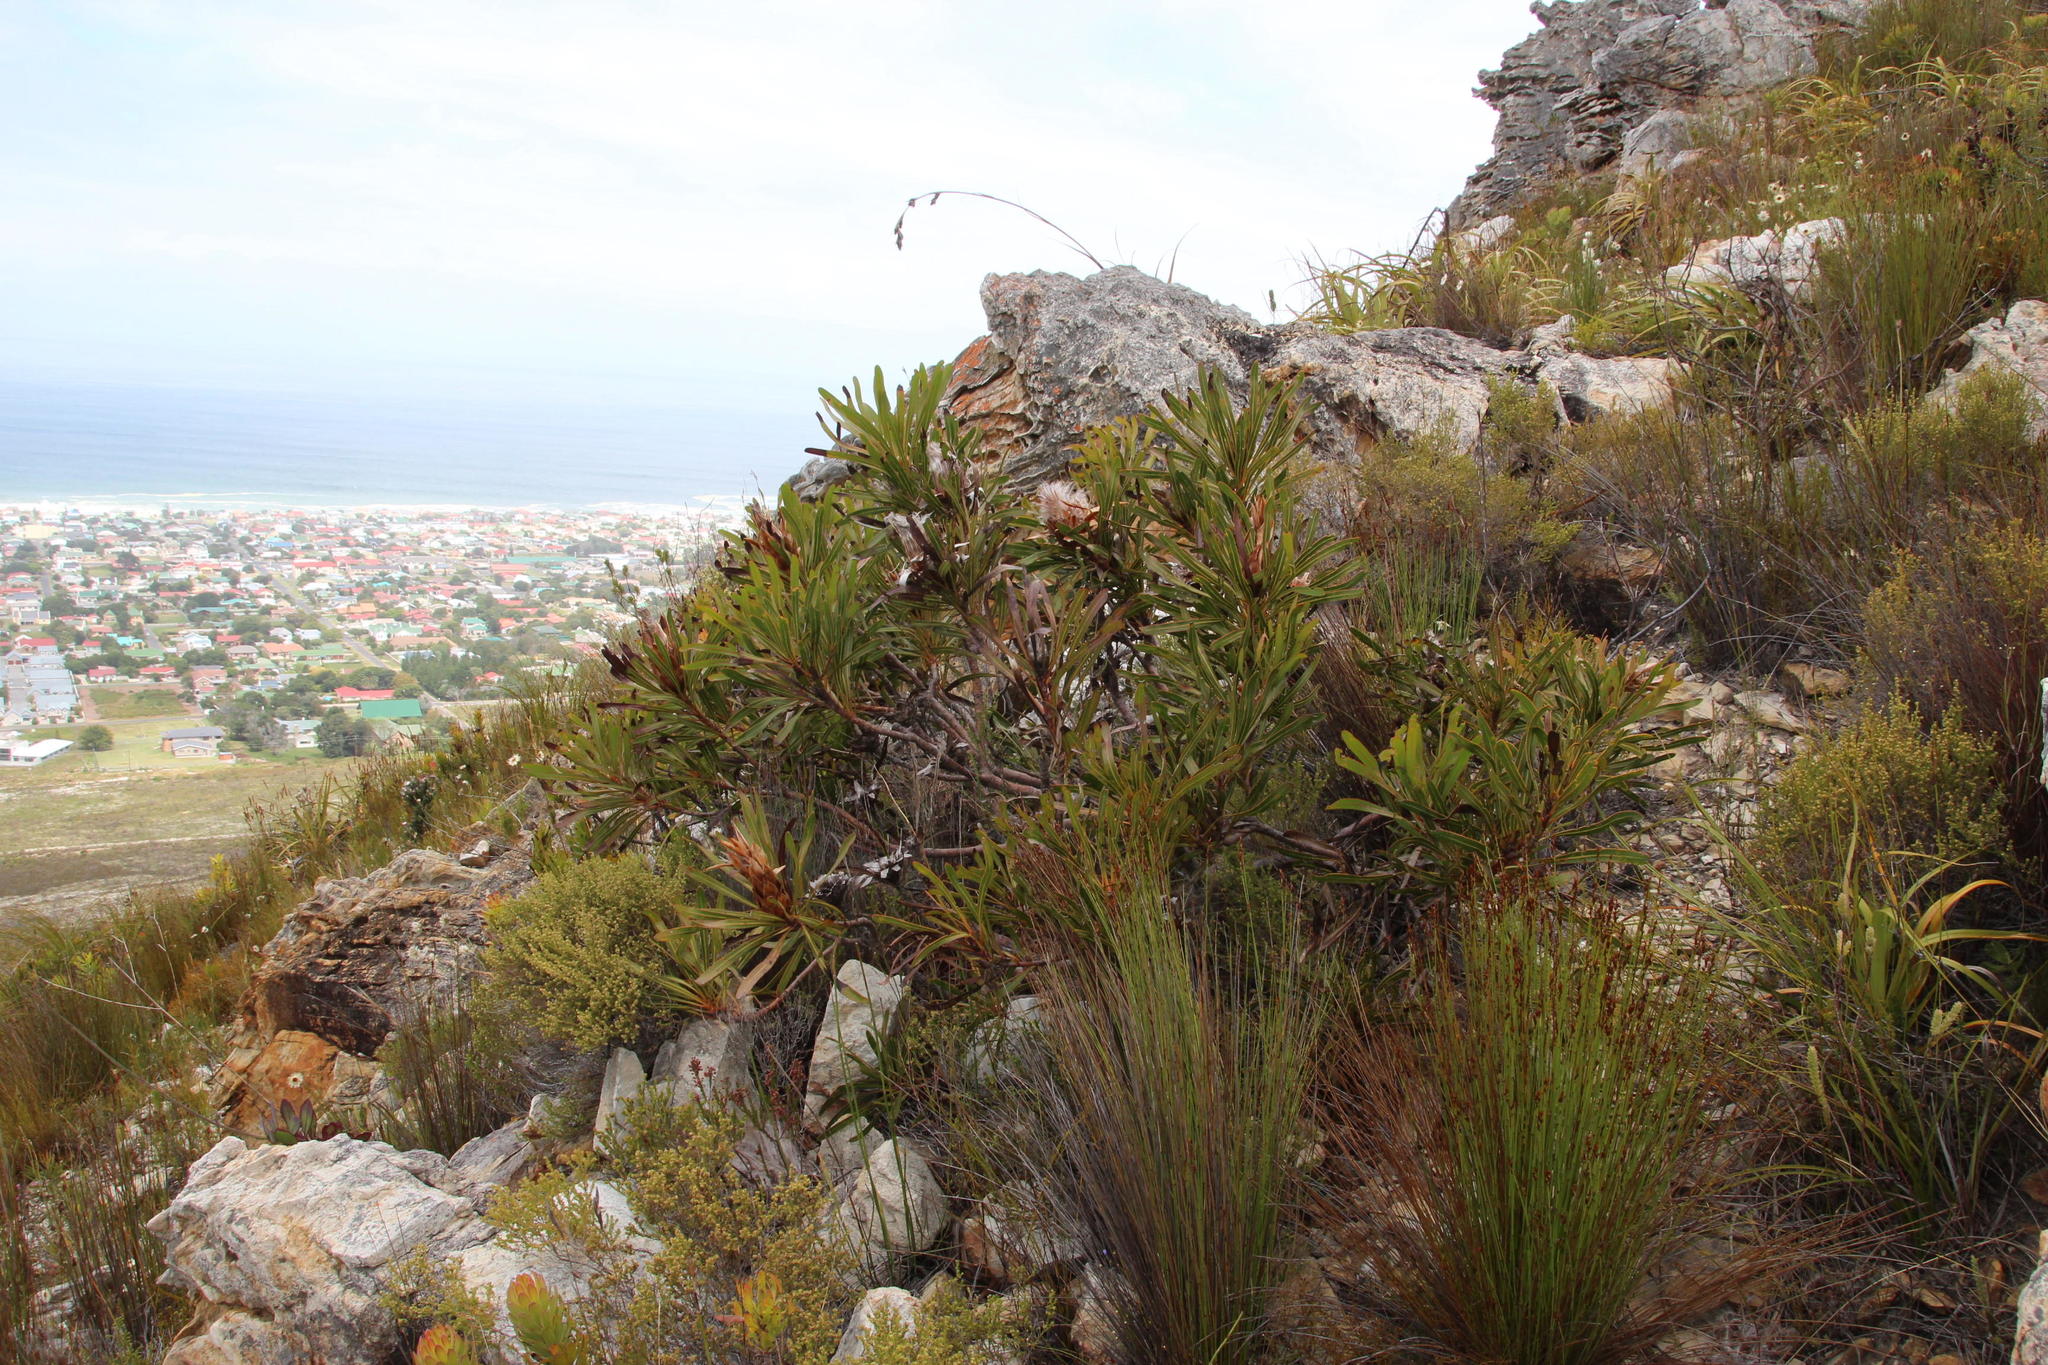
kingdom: Plantae
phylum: Tracheophyta
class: Magnoliopsida
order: Proteales
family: Proteaceae
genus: Protea
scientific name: Protea longifolia
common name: Long-leaf sugarbush
